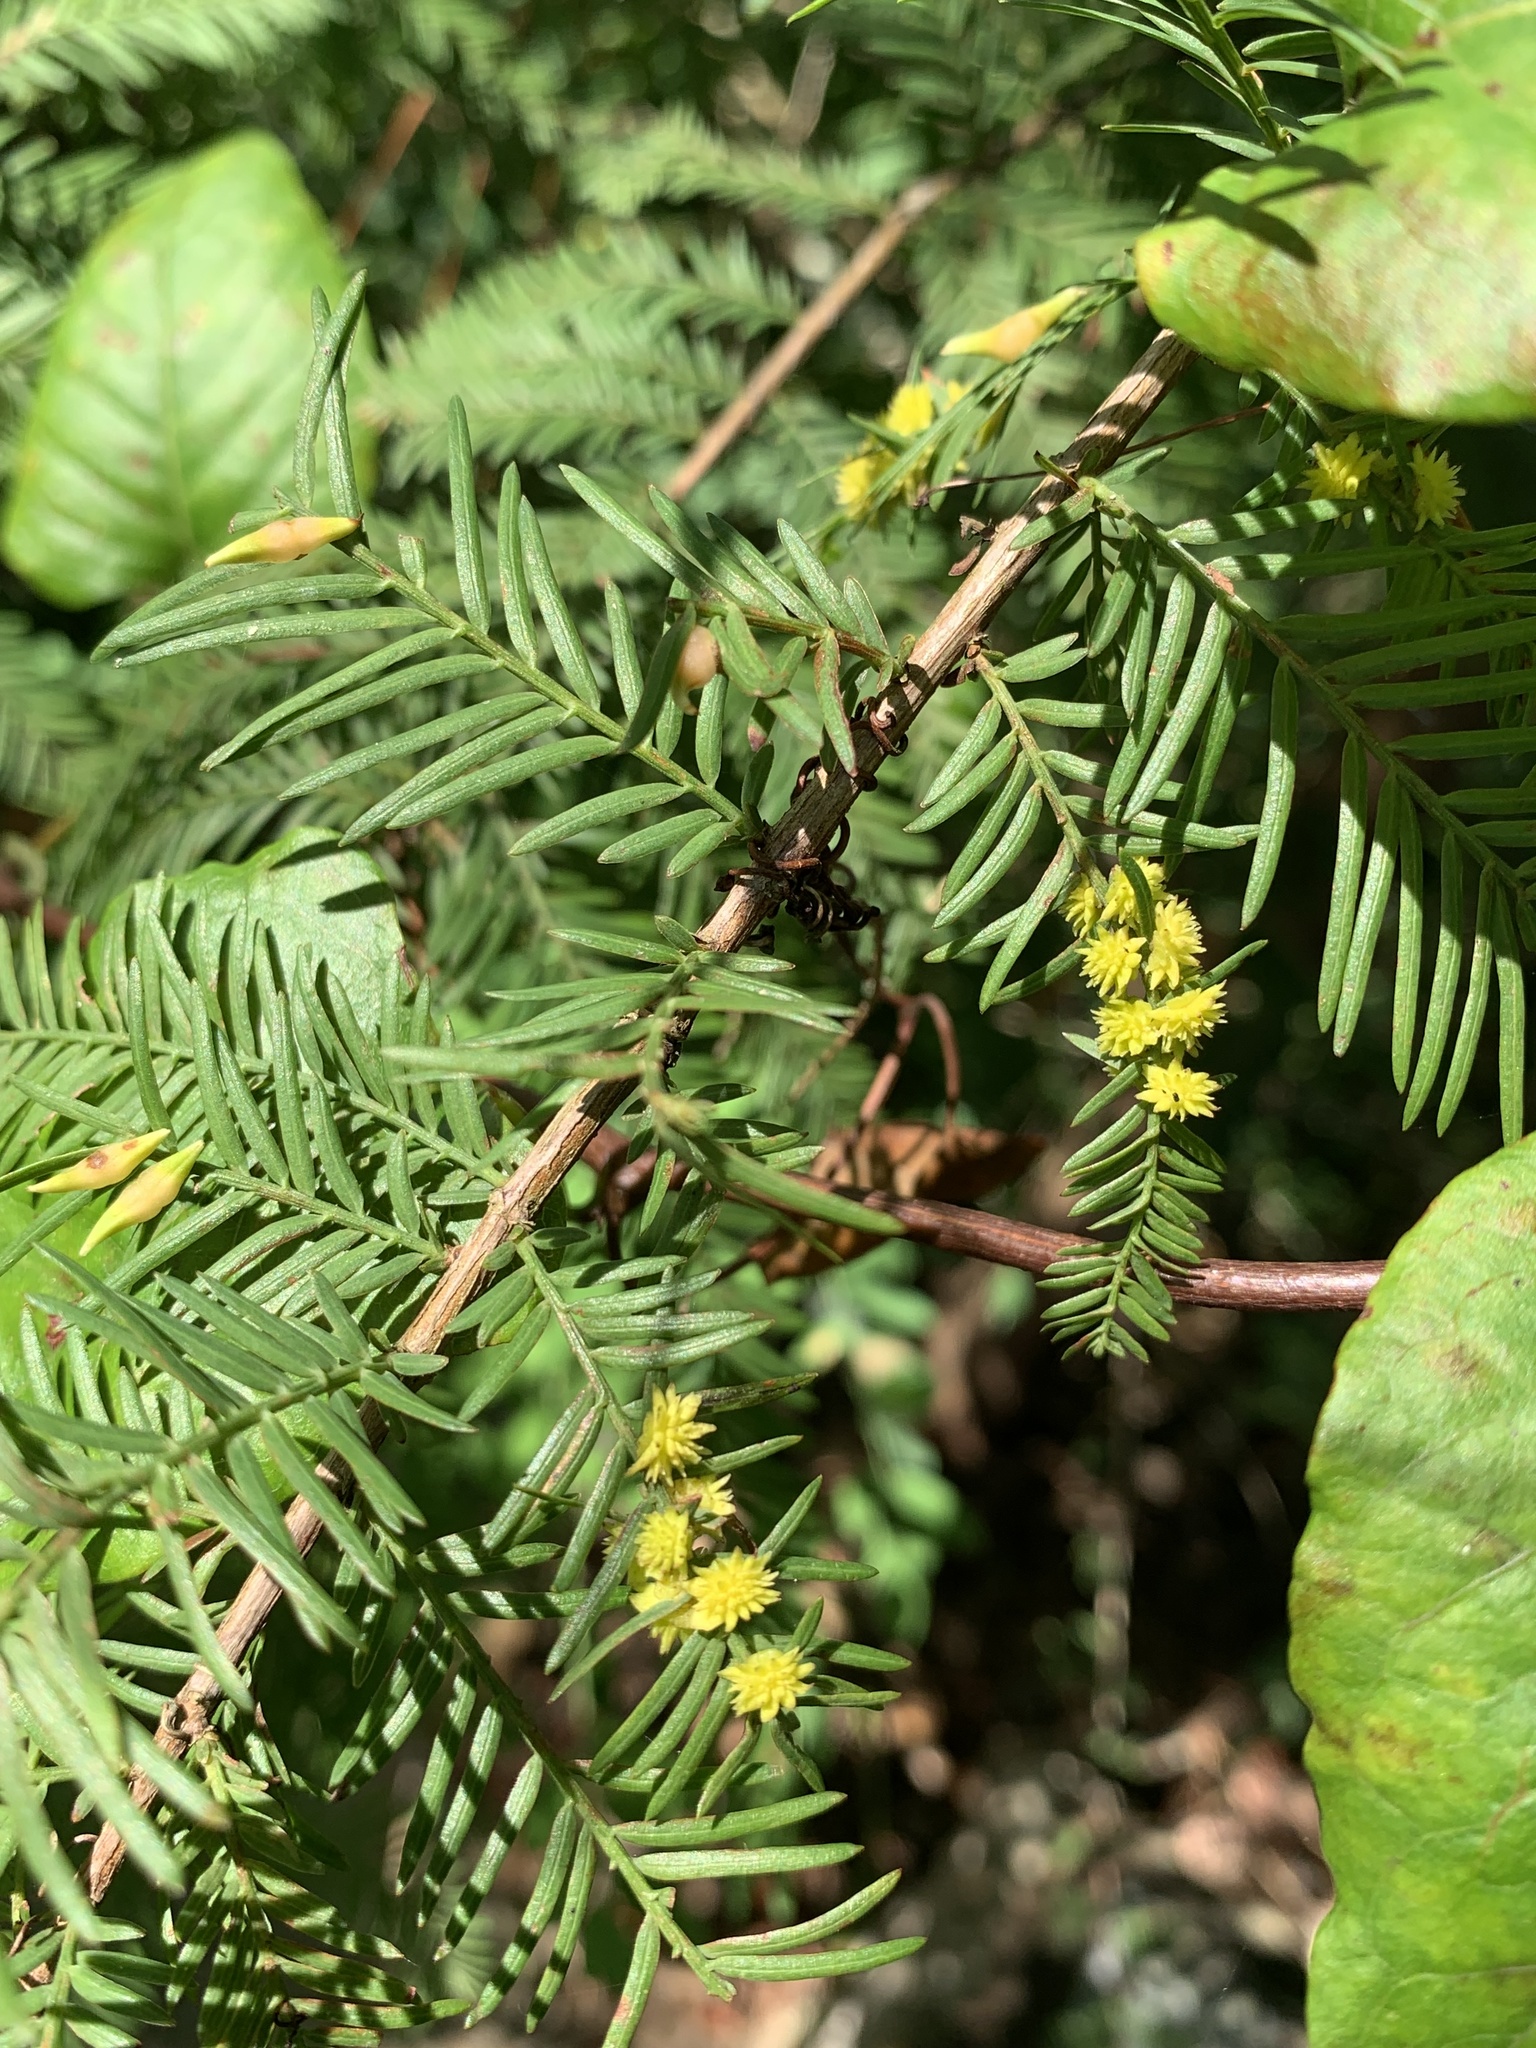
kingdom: Animalia
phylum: Arthropoda
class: Insecta
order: Diptera
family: Cecidomyiidae
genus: Taxodiomyia
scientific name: Taxodiomyia
